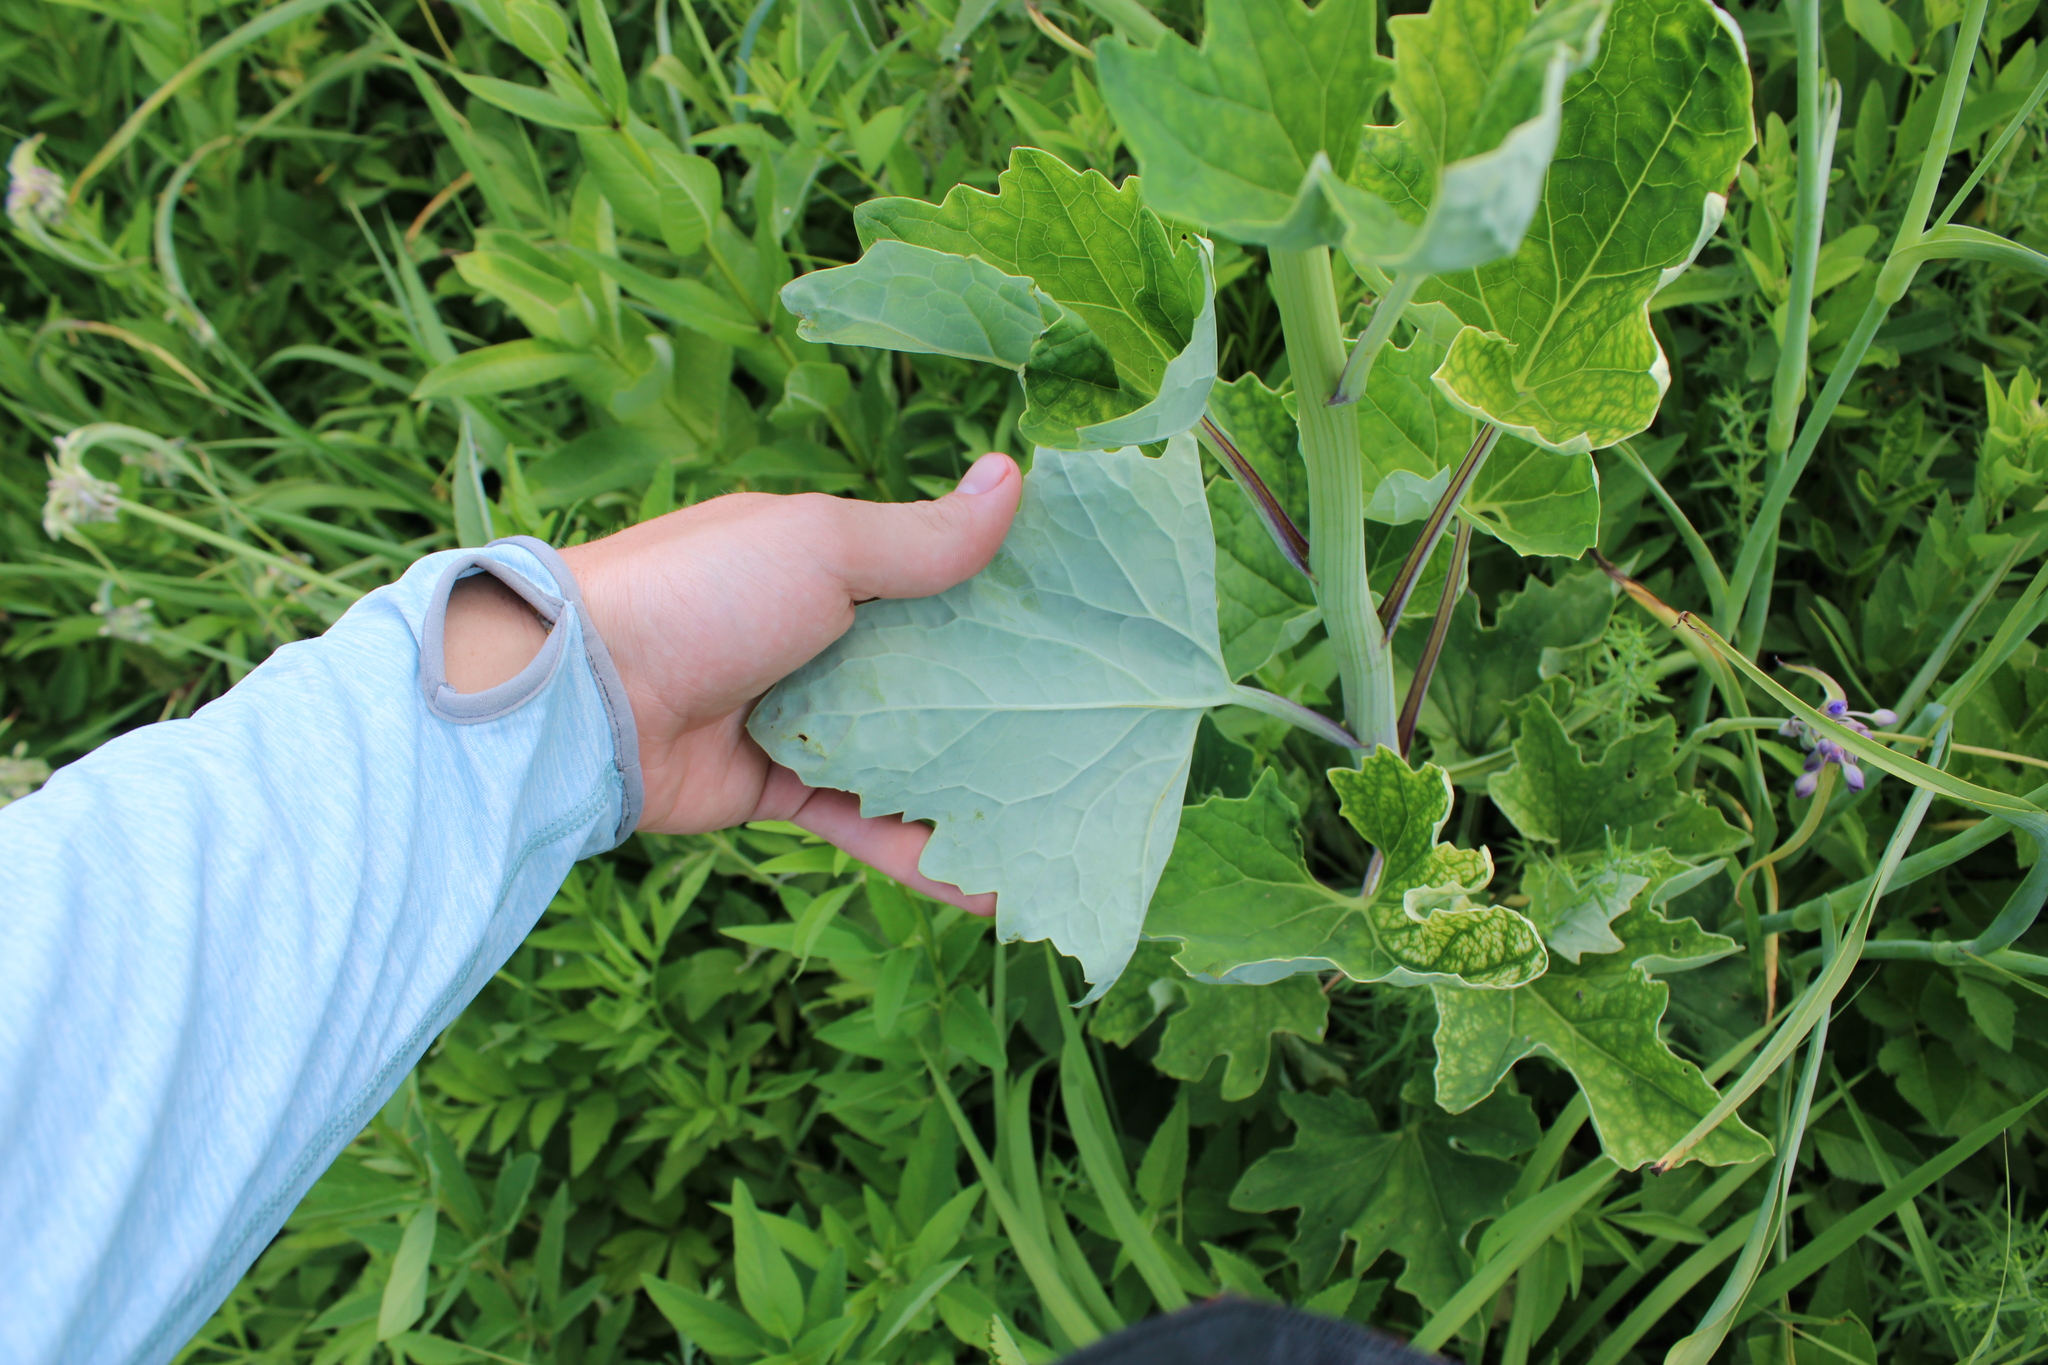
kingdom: Plantae
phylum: Tracheophyta
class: Magnoliopsida
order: Asterales
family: Asteraceae
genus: Arnoglossum
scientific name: Arnoglossum atriplicifolium
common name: Pale indian-plantain
